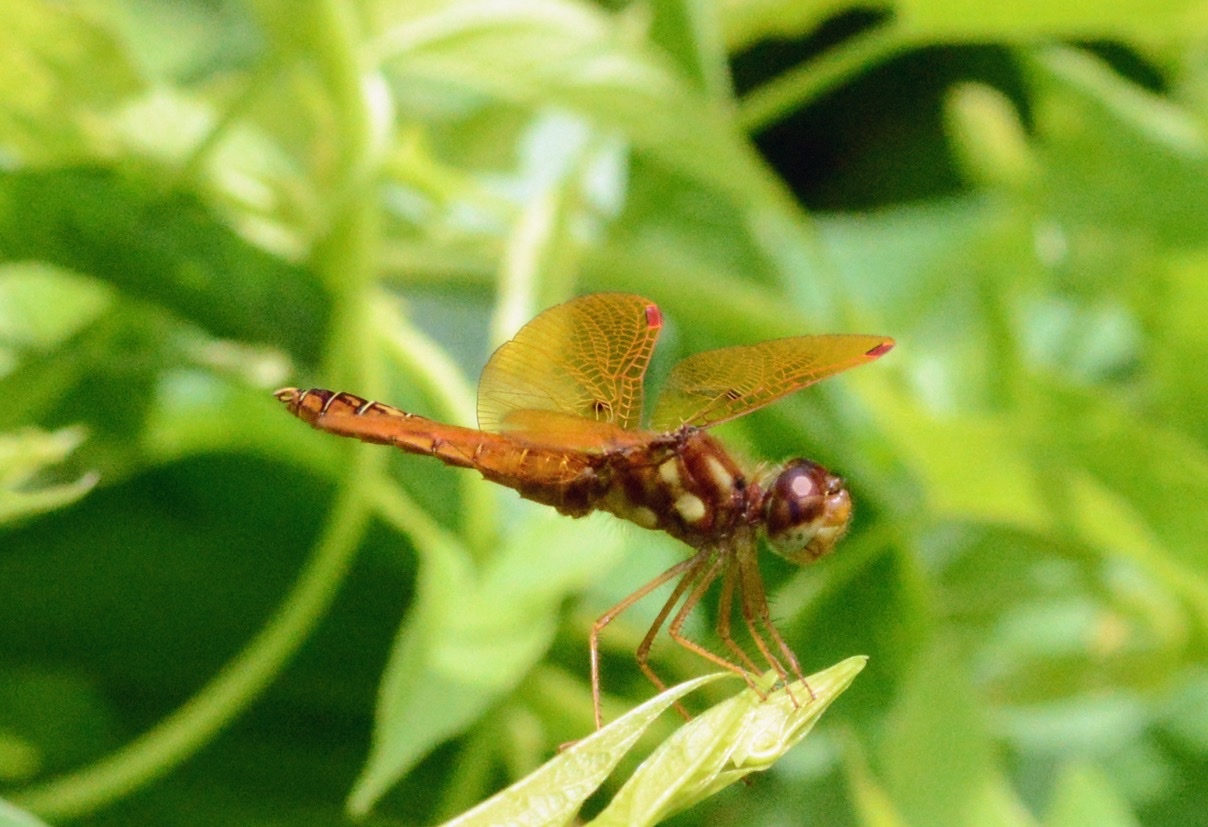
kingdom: Animalia
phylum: Arthropoda
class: Insecta
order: Odonata
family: Libellulidae
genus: Perithemis
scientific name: Perithemis tenera
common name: Eastern amberwing
